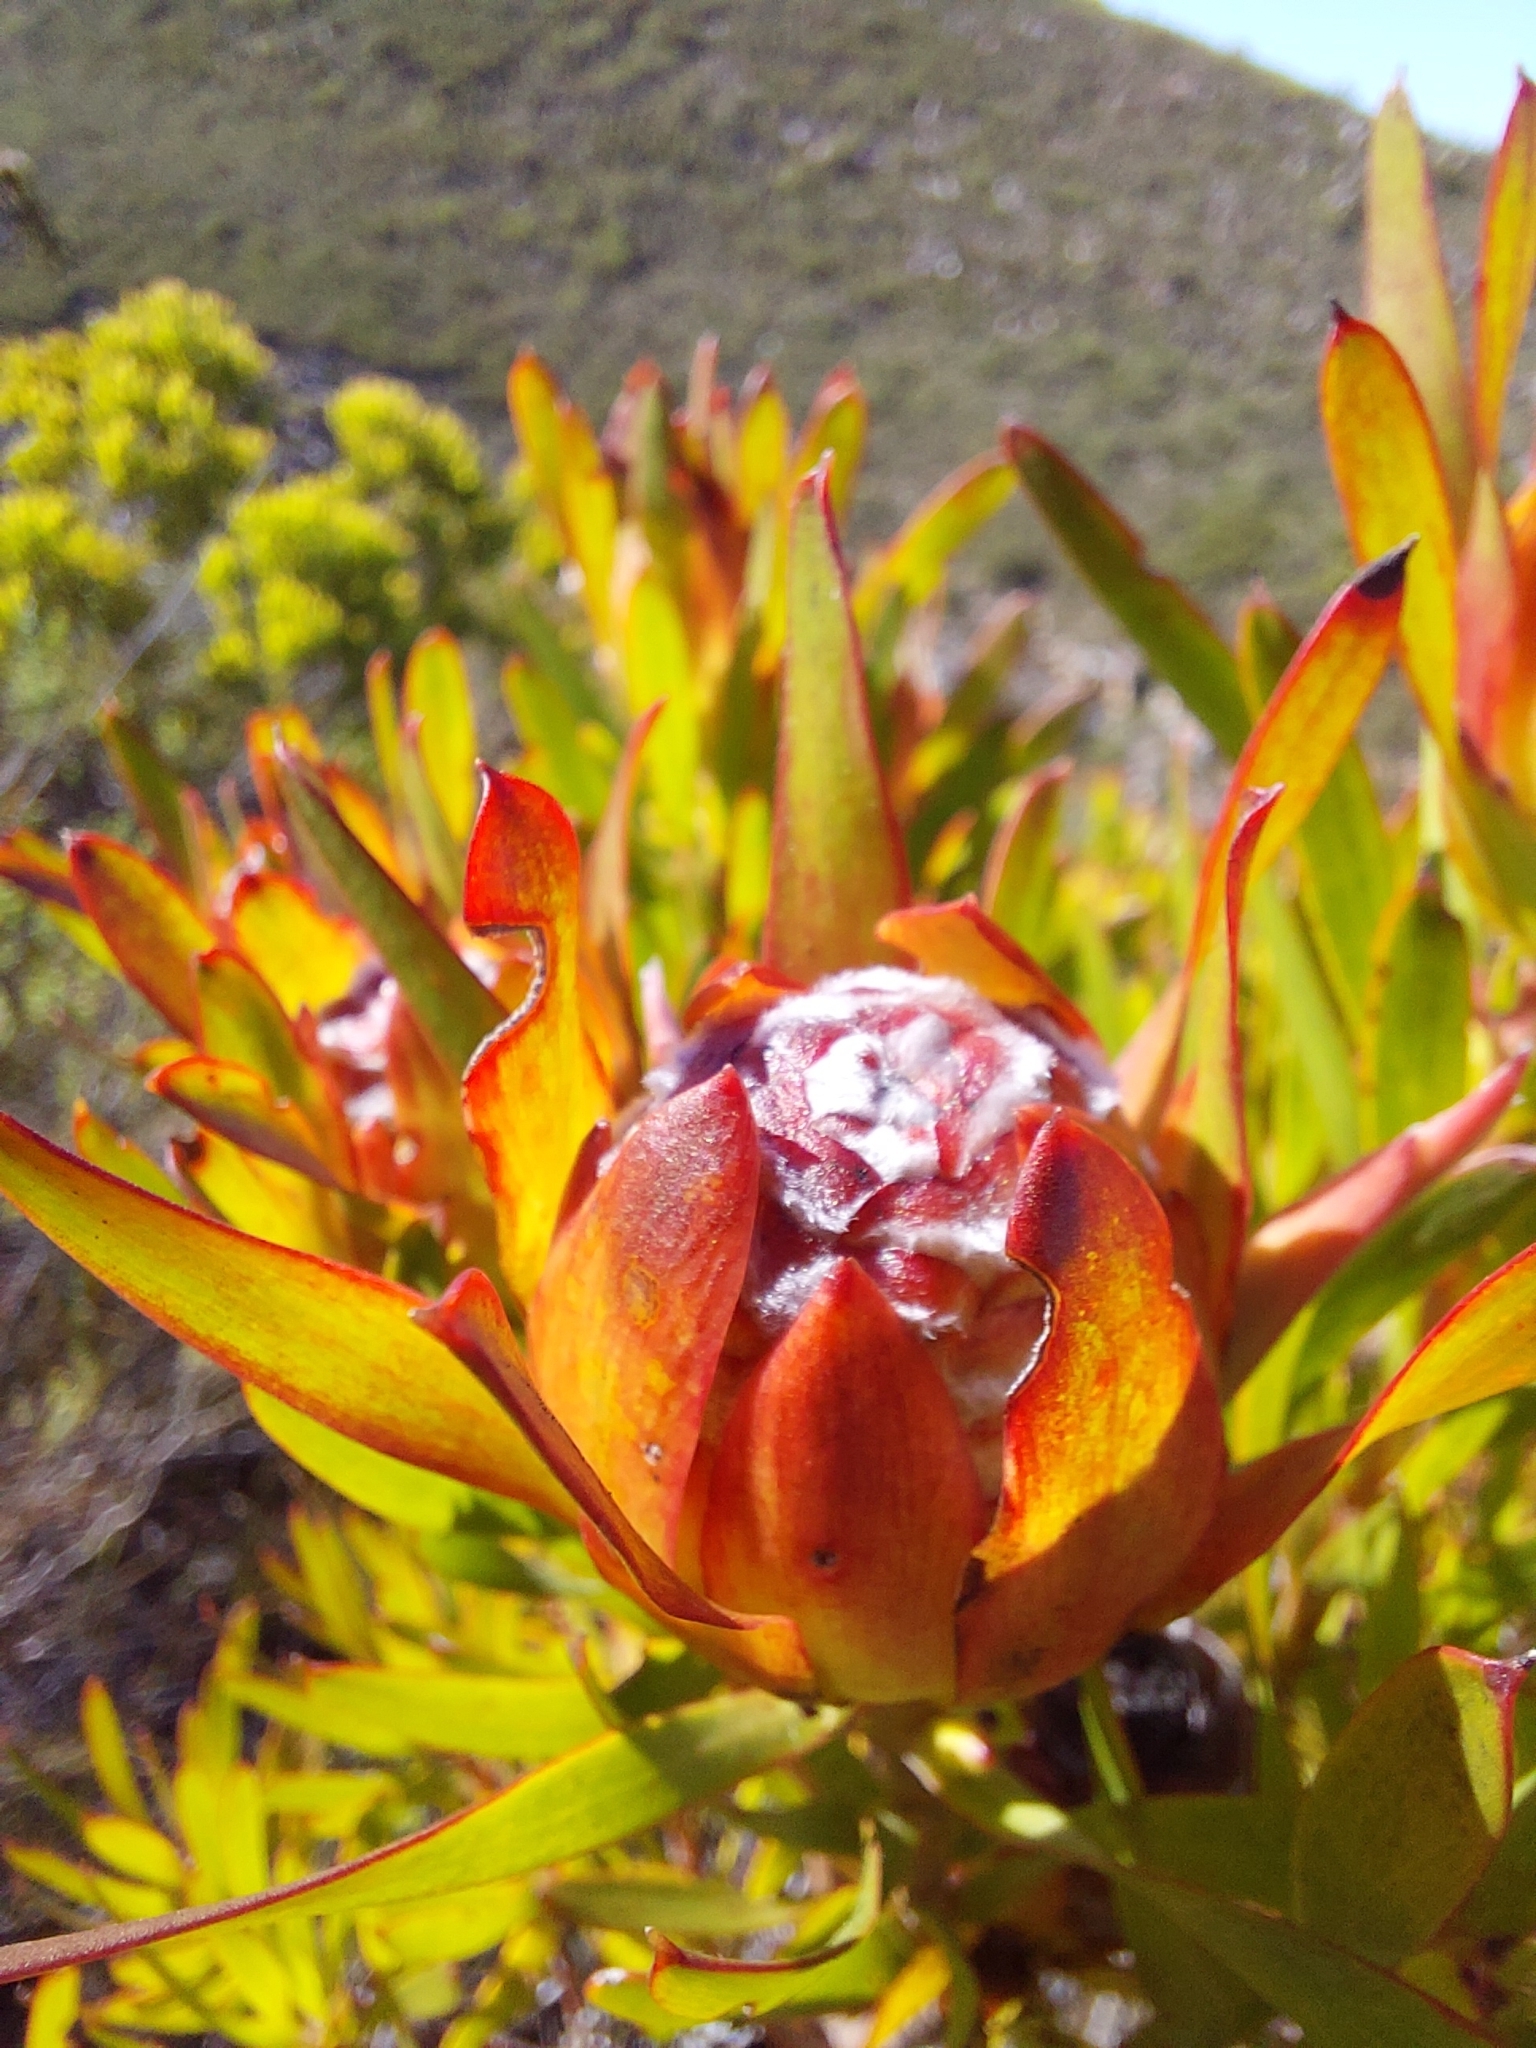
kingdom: Plantae
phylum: Tracheophyta
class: Magnoliopsida
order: Proteales
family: Proteaceae
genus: Leucadendron
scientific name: Leucadendron xanthoconus
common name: Sickle-leaf conebush
